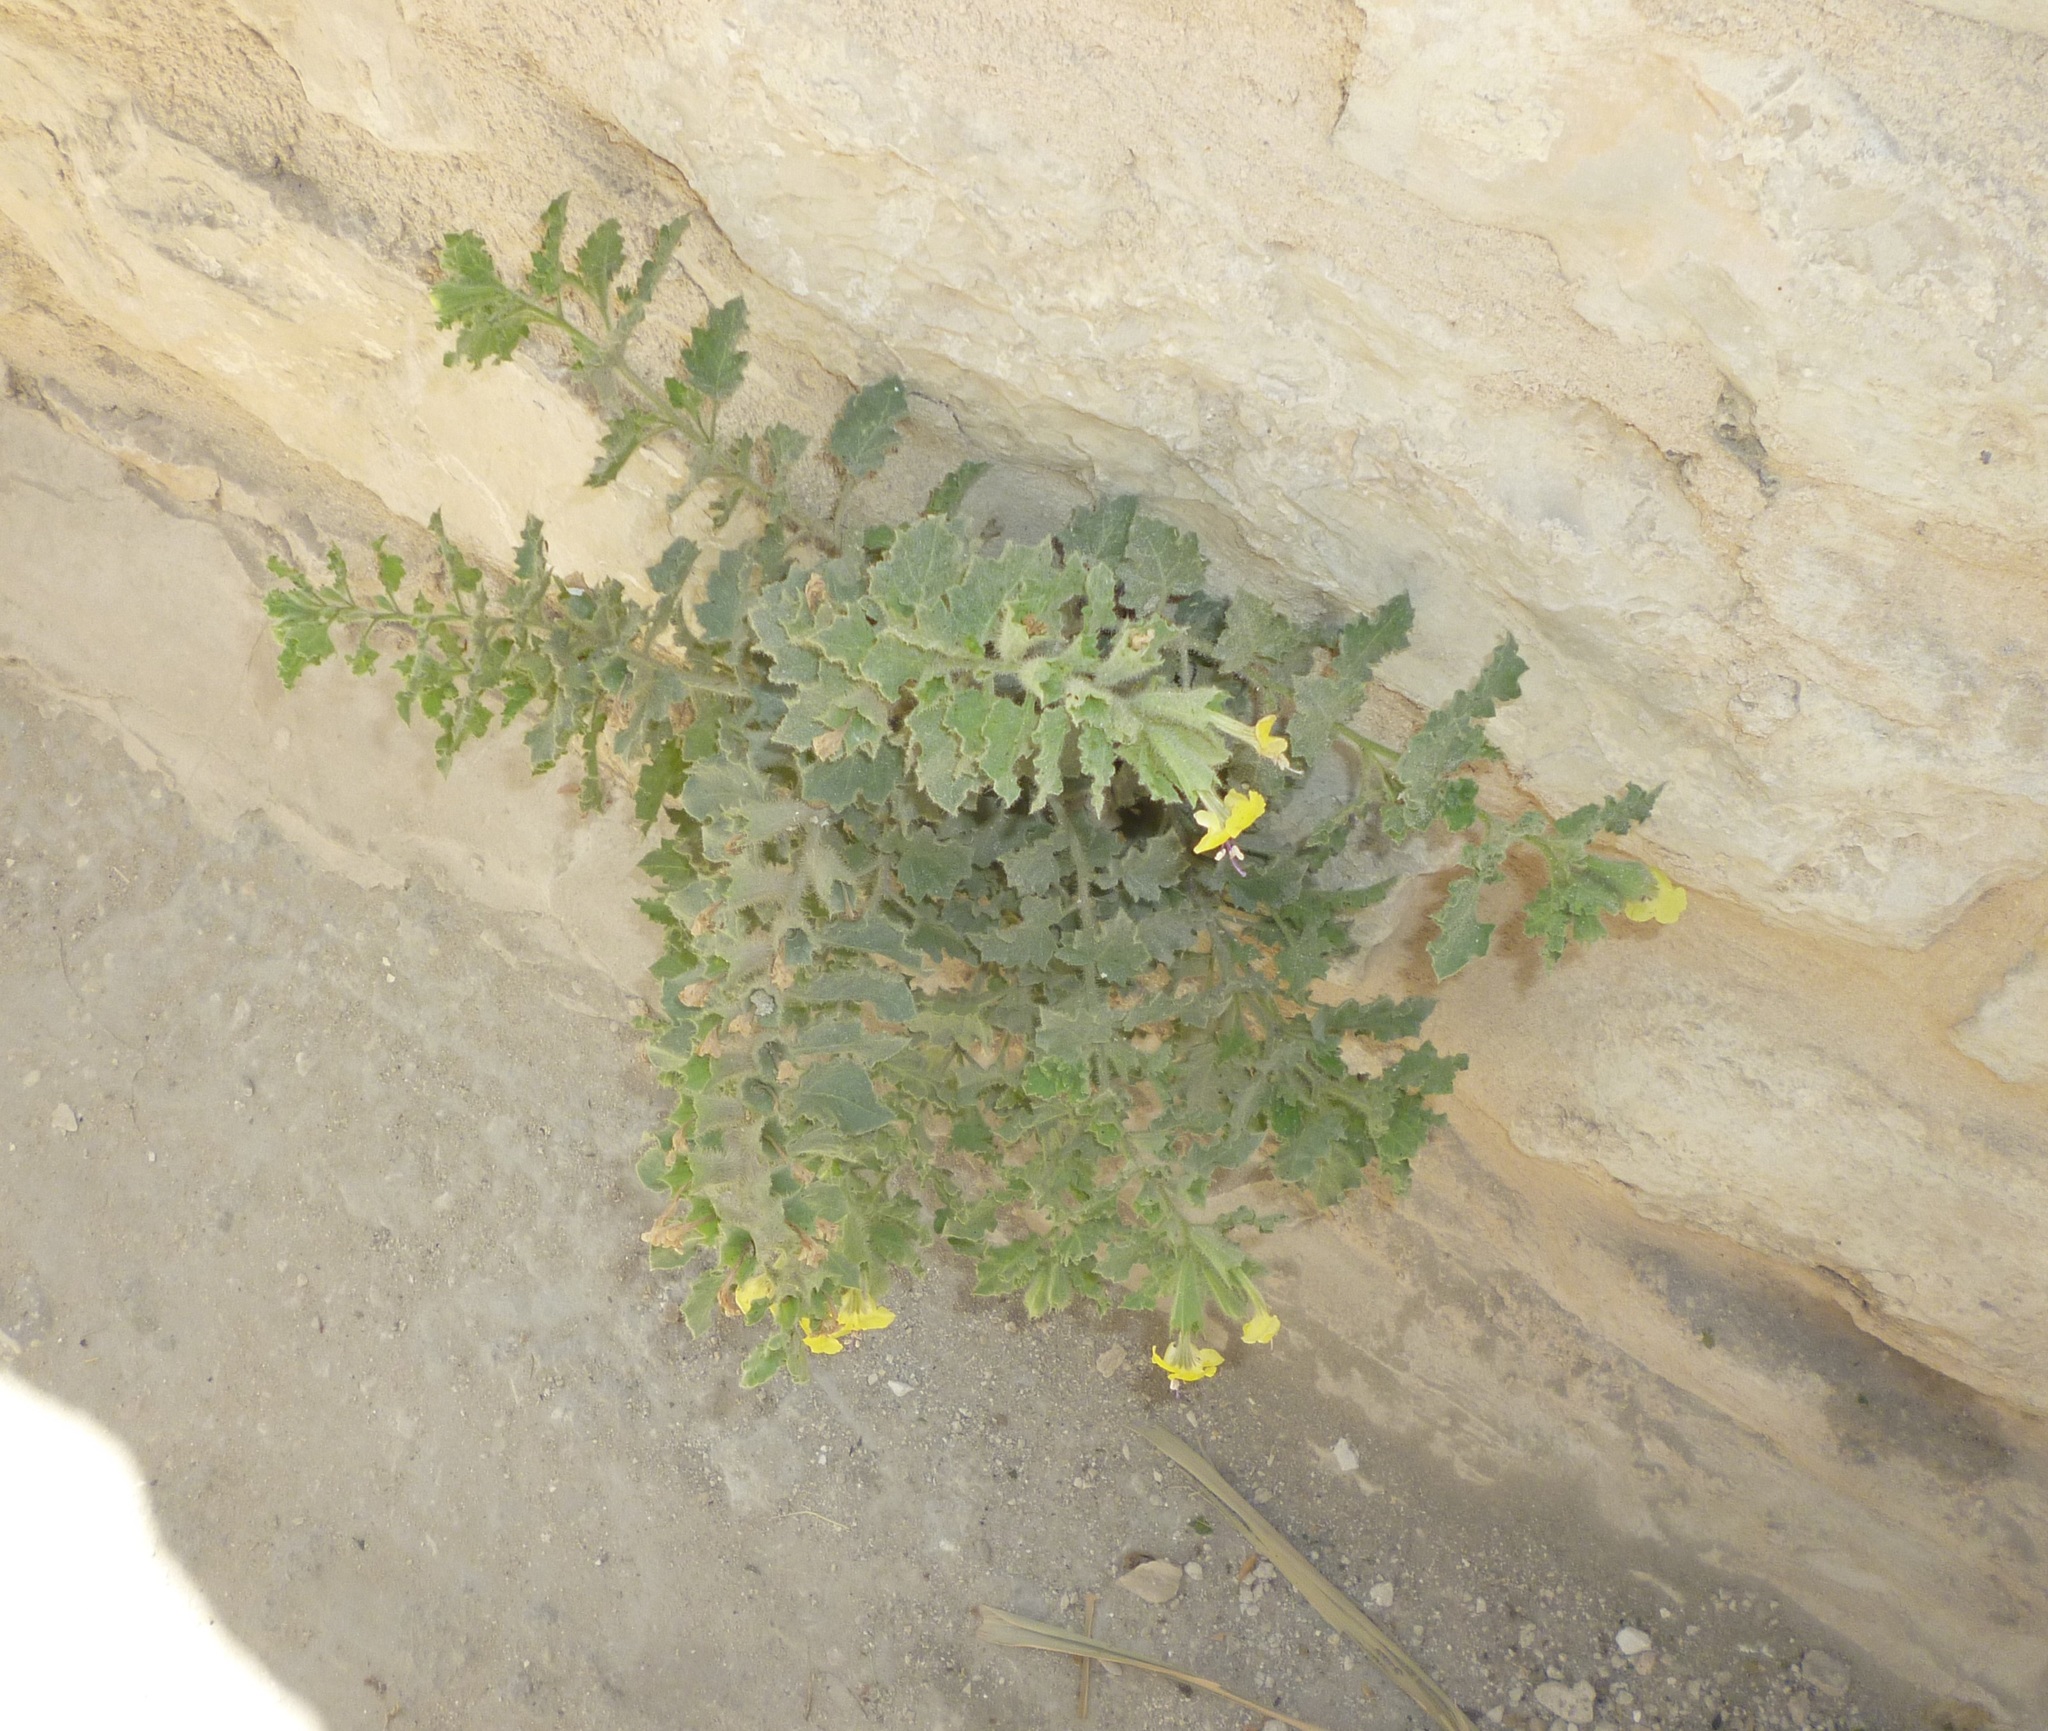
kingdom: Plantae
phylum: Tracheophyta
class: Magnoliopsida
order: Solanales
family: Solanaceae
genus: Hyoscyamus
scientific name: Hyoscyamus aureus
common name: Golden henbane
